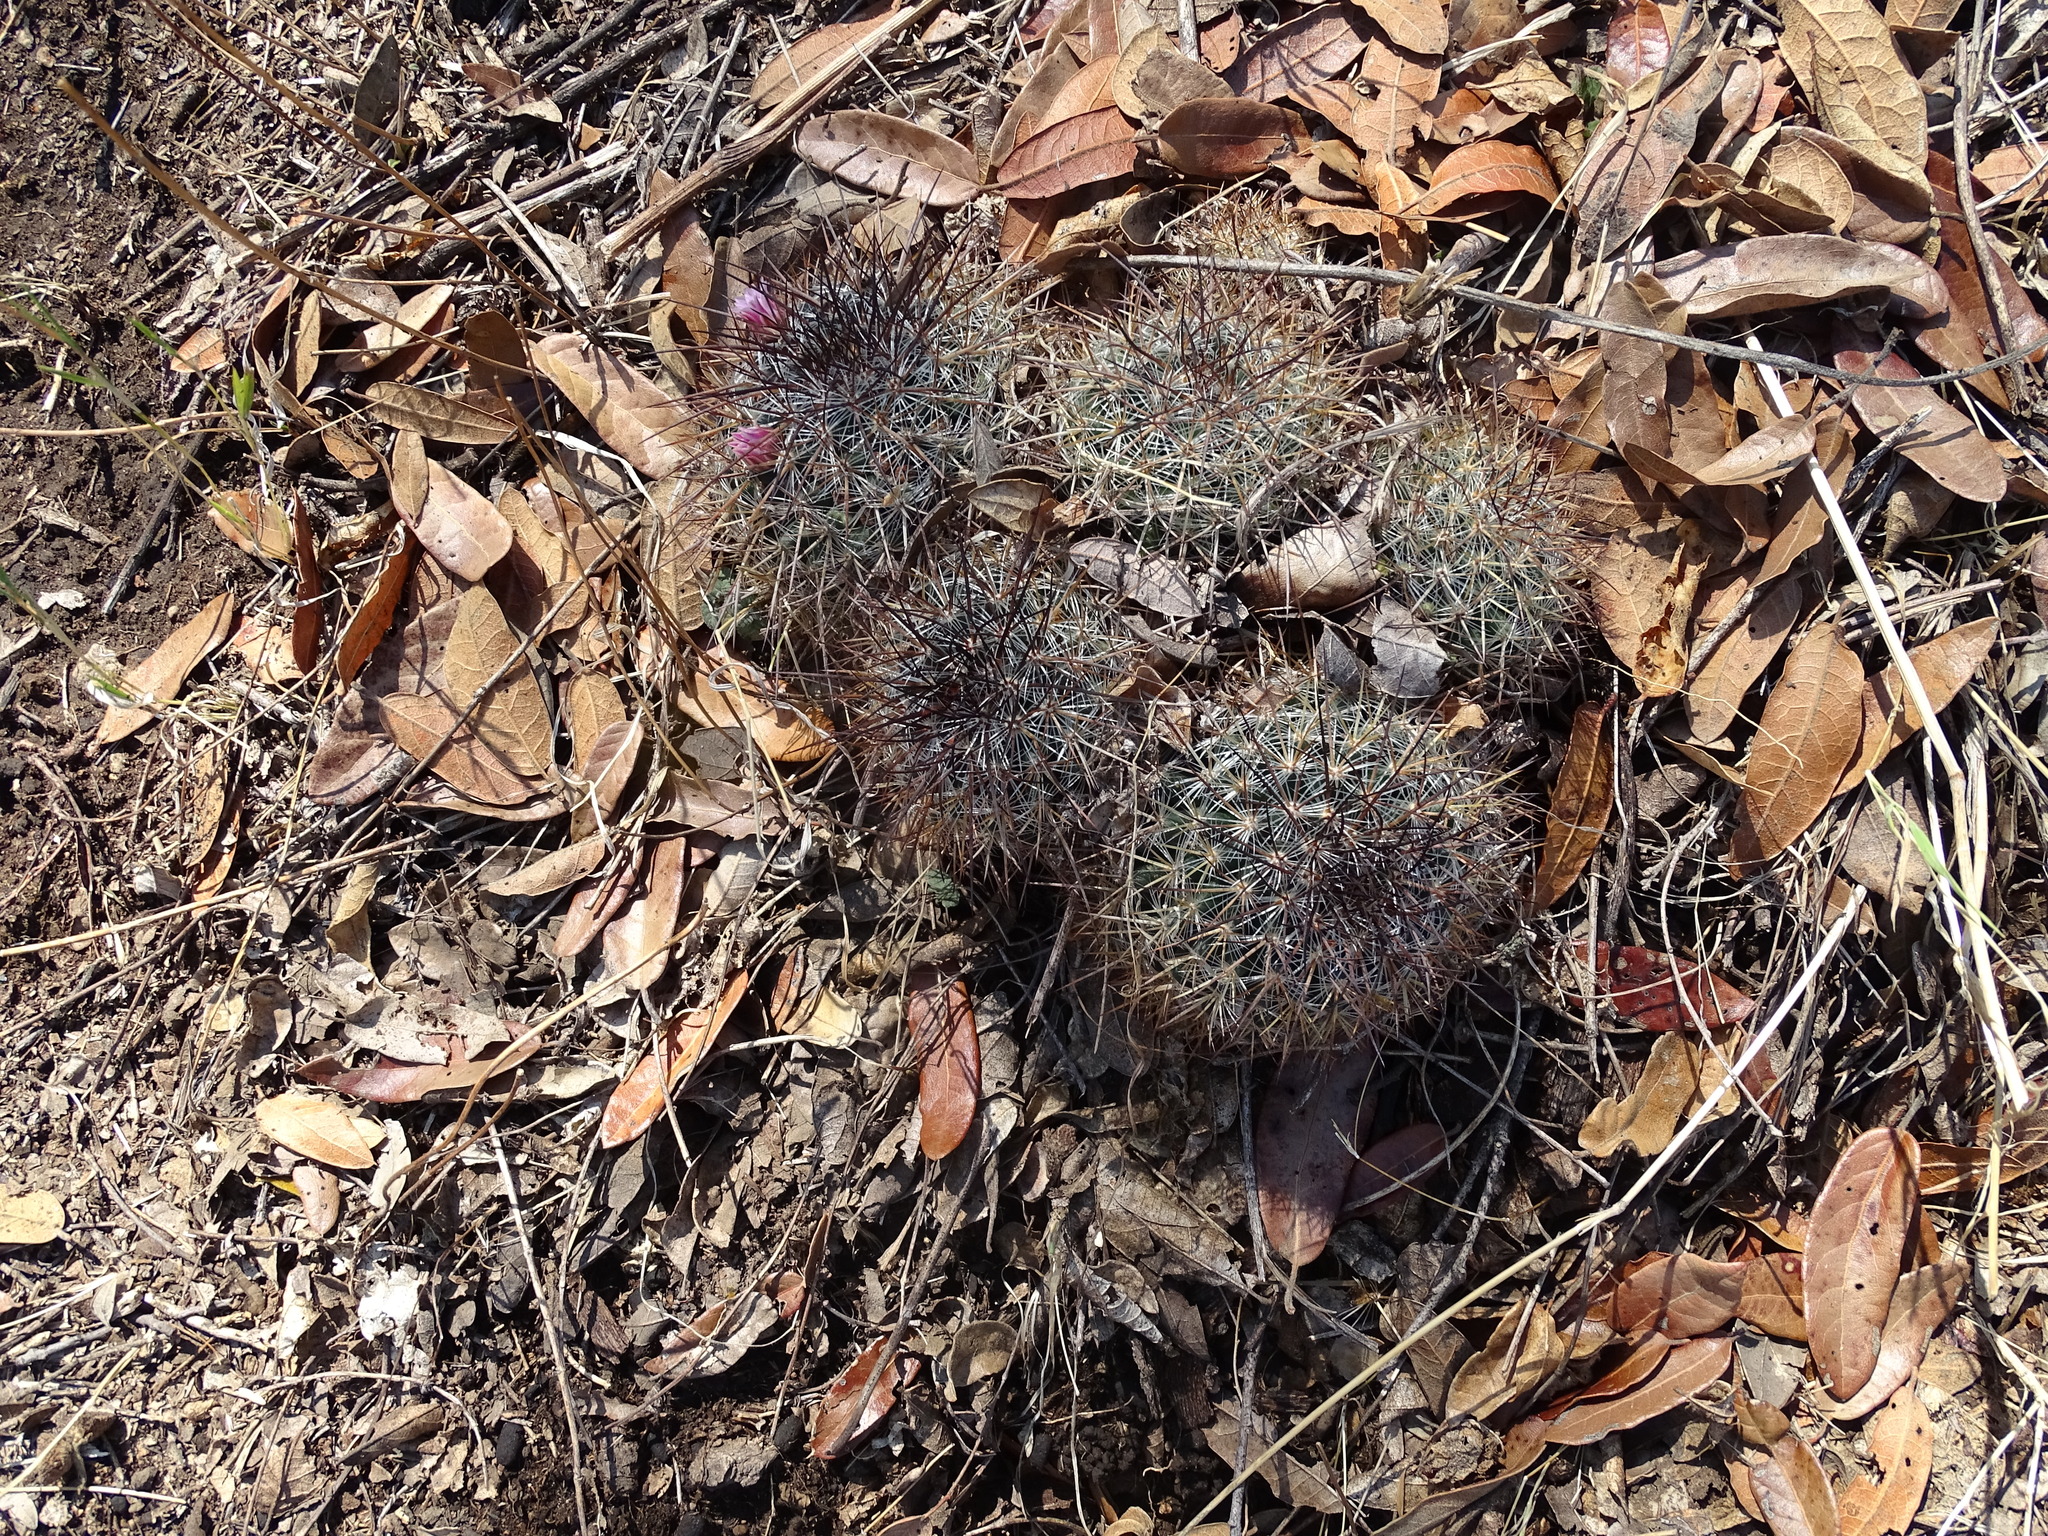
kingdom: Plantae
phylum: Tracheophyta
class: Magnoliopsida
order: Caryophyllales
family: Cactaceae
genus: Mammillaria
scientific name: Mammillaria discolor
